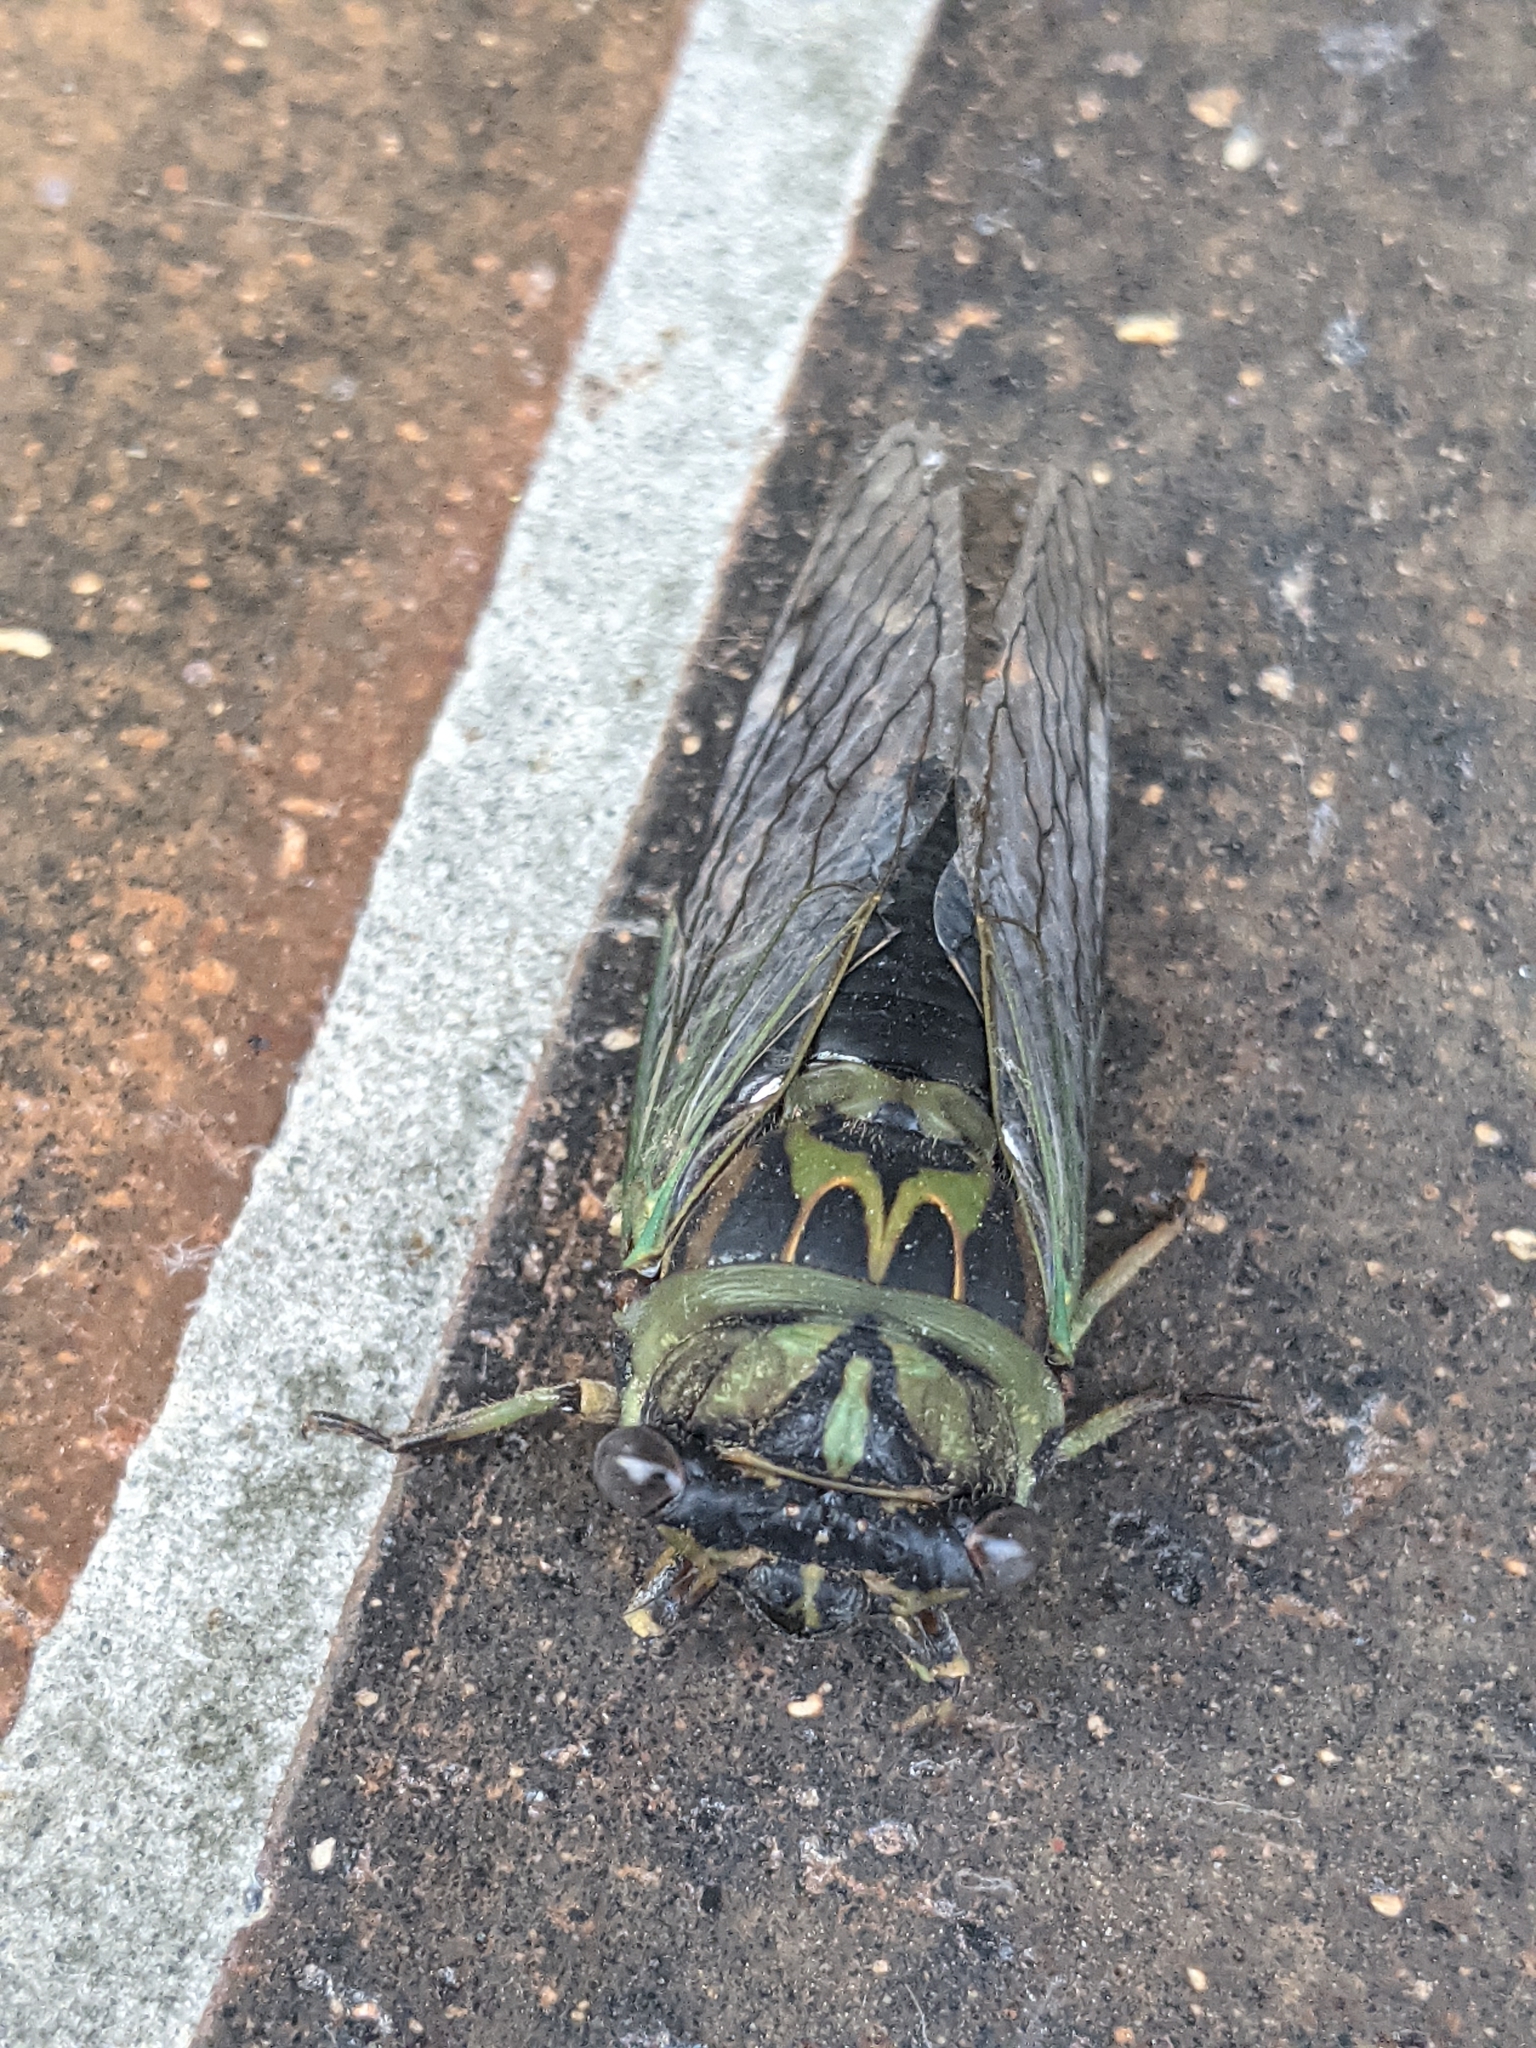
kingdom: Animalia
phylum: Arthropoda
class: Insecta
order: Hemiptera
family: Cicadidae
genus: Neotibicen
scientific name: Neotibicen canicularis
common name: God-day cicada
